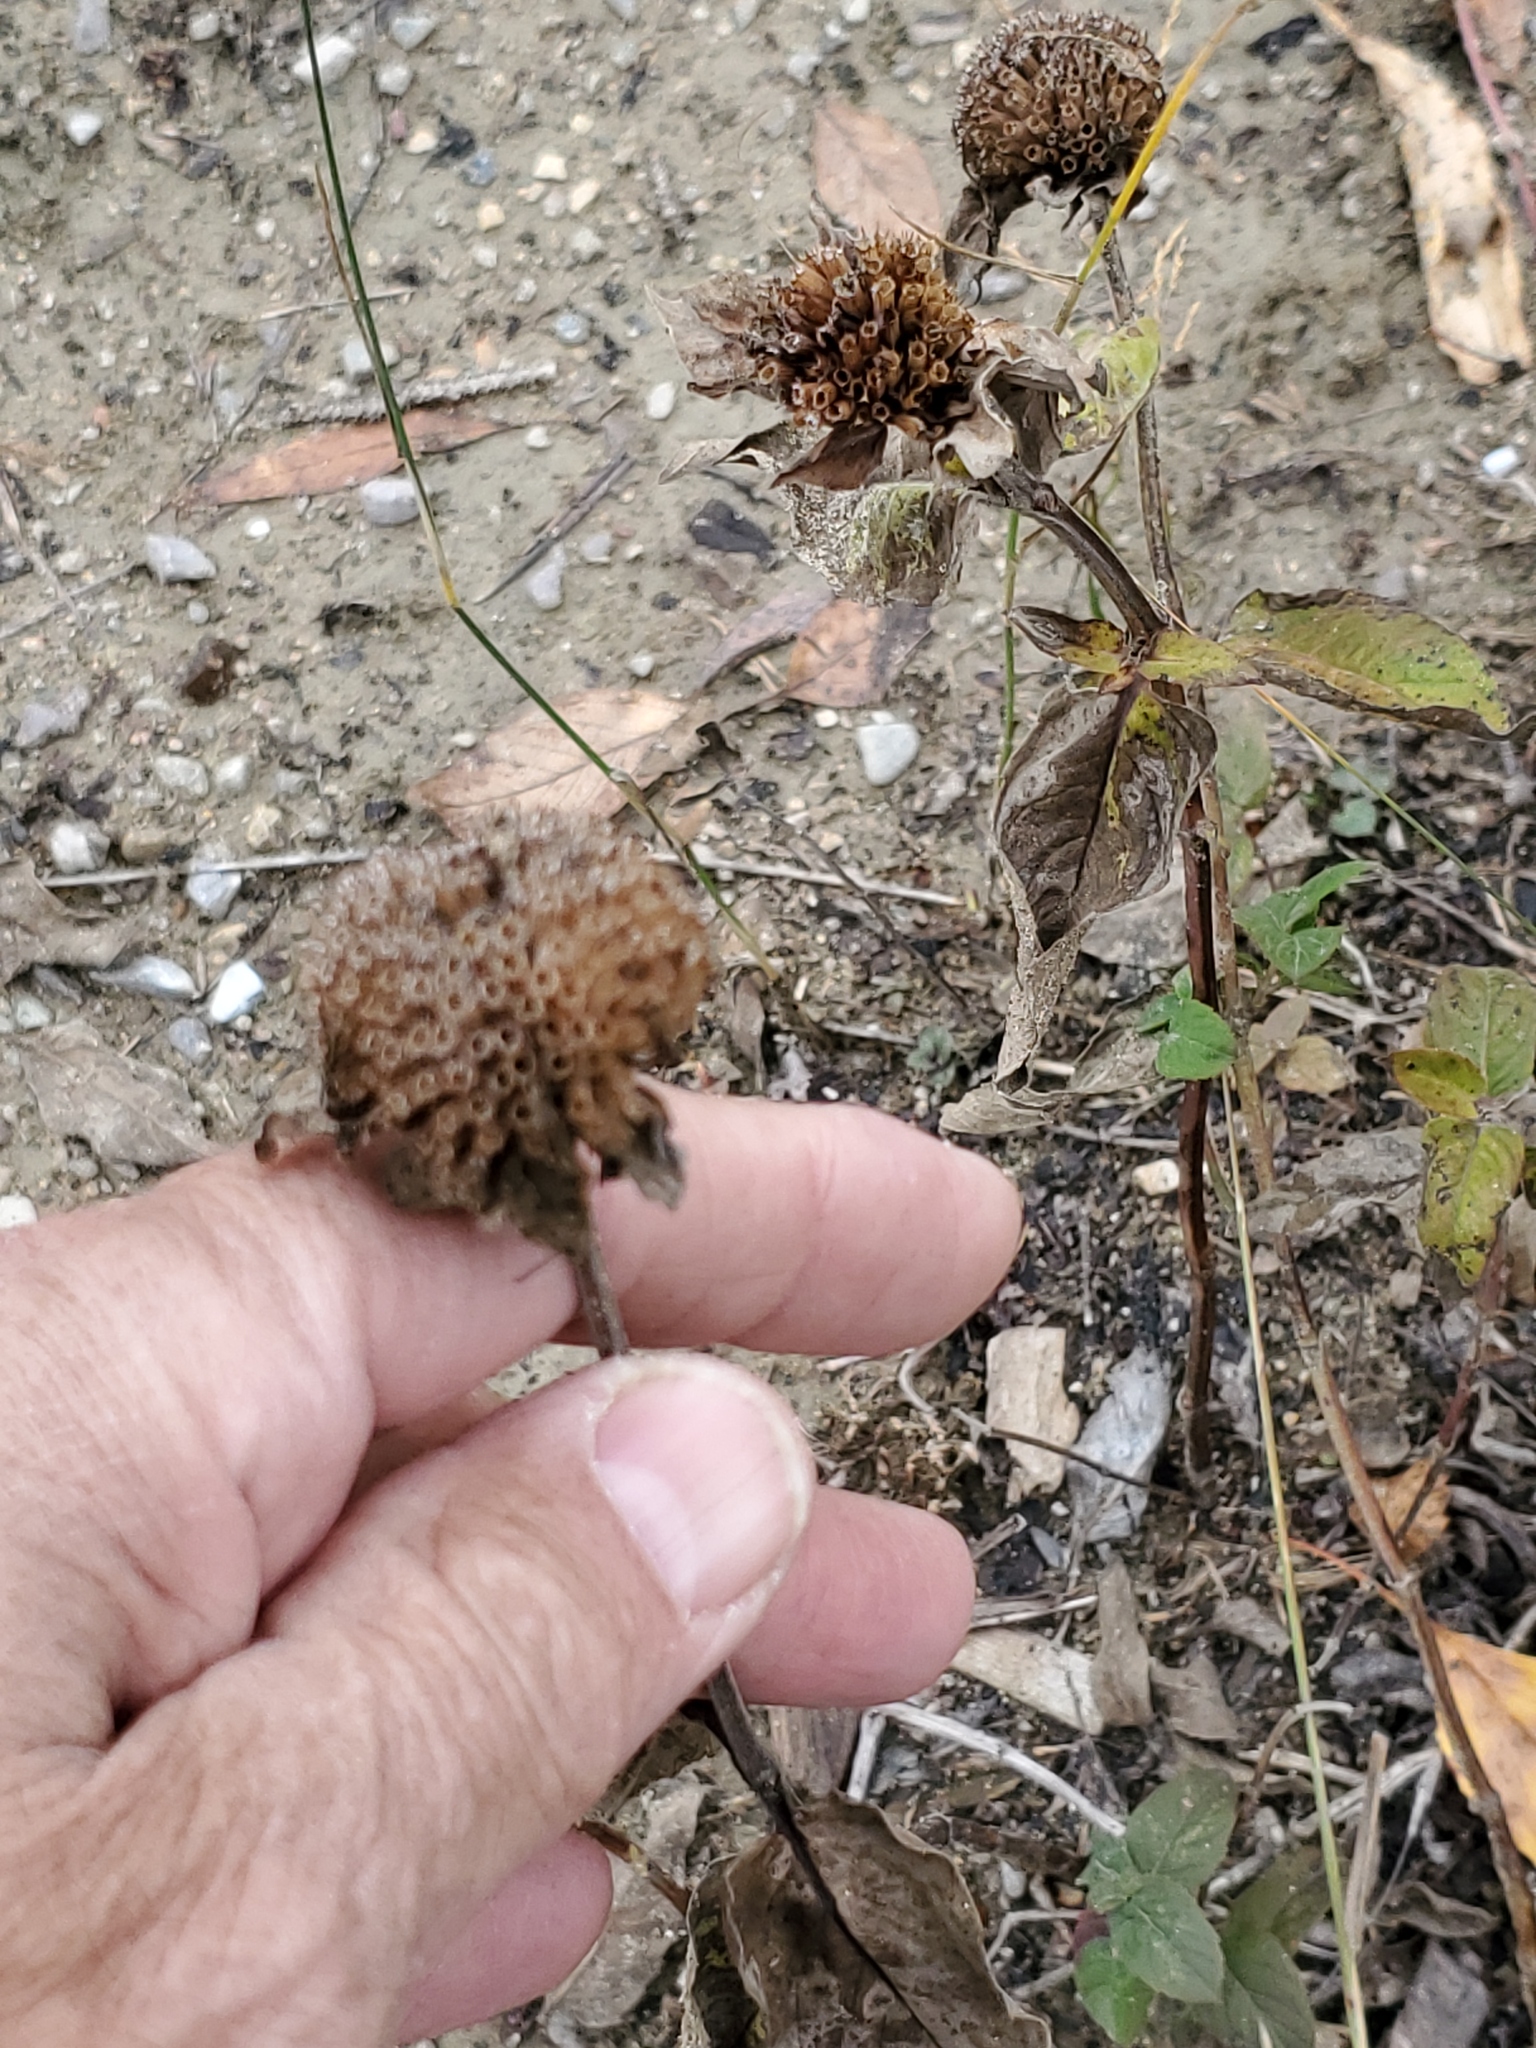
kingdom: Plantae
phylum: Tracheophyta
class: Magnoliopsida
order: Lamiales
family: Lamiaceae
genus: Monarda
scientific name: Monarda fistulosa
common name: Purple beebalm
